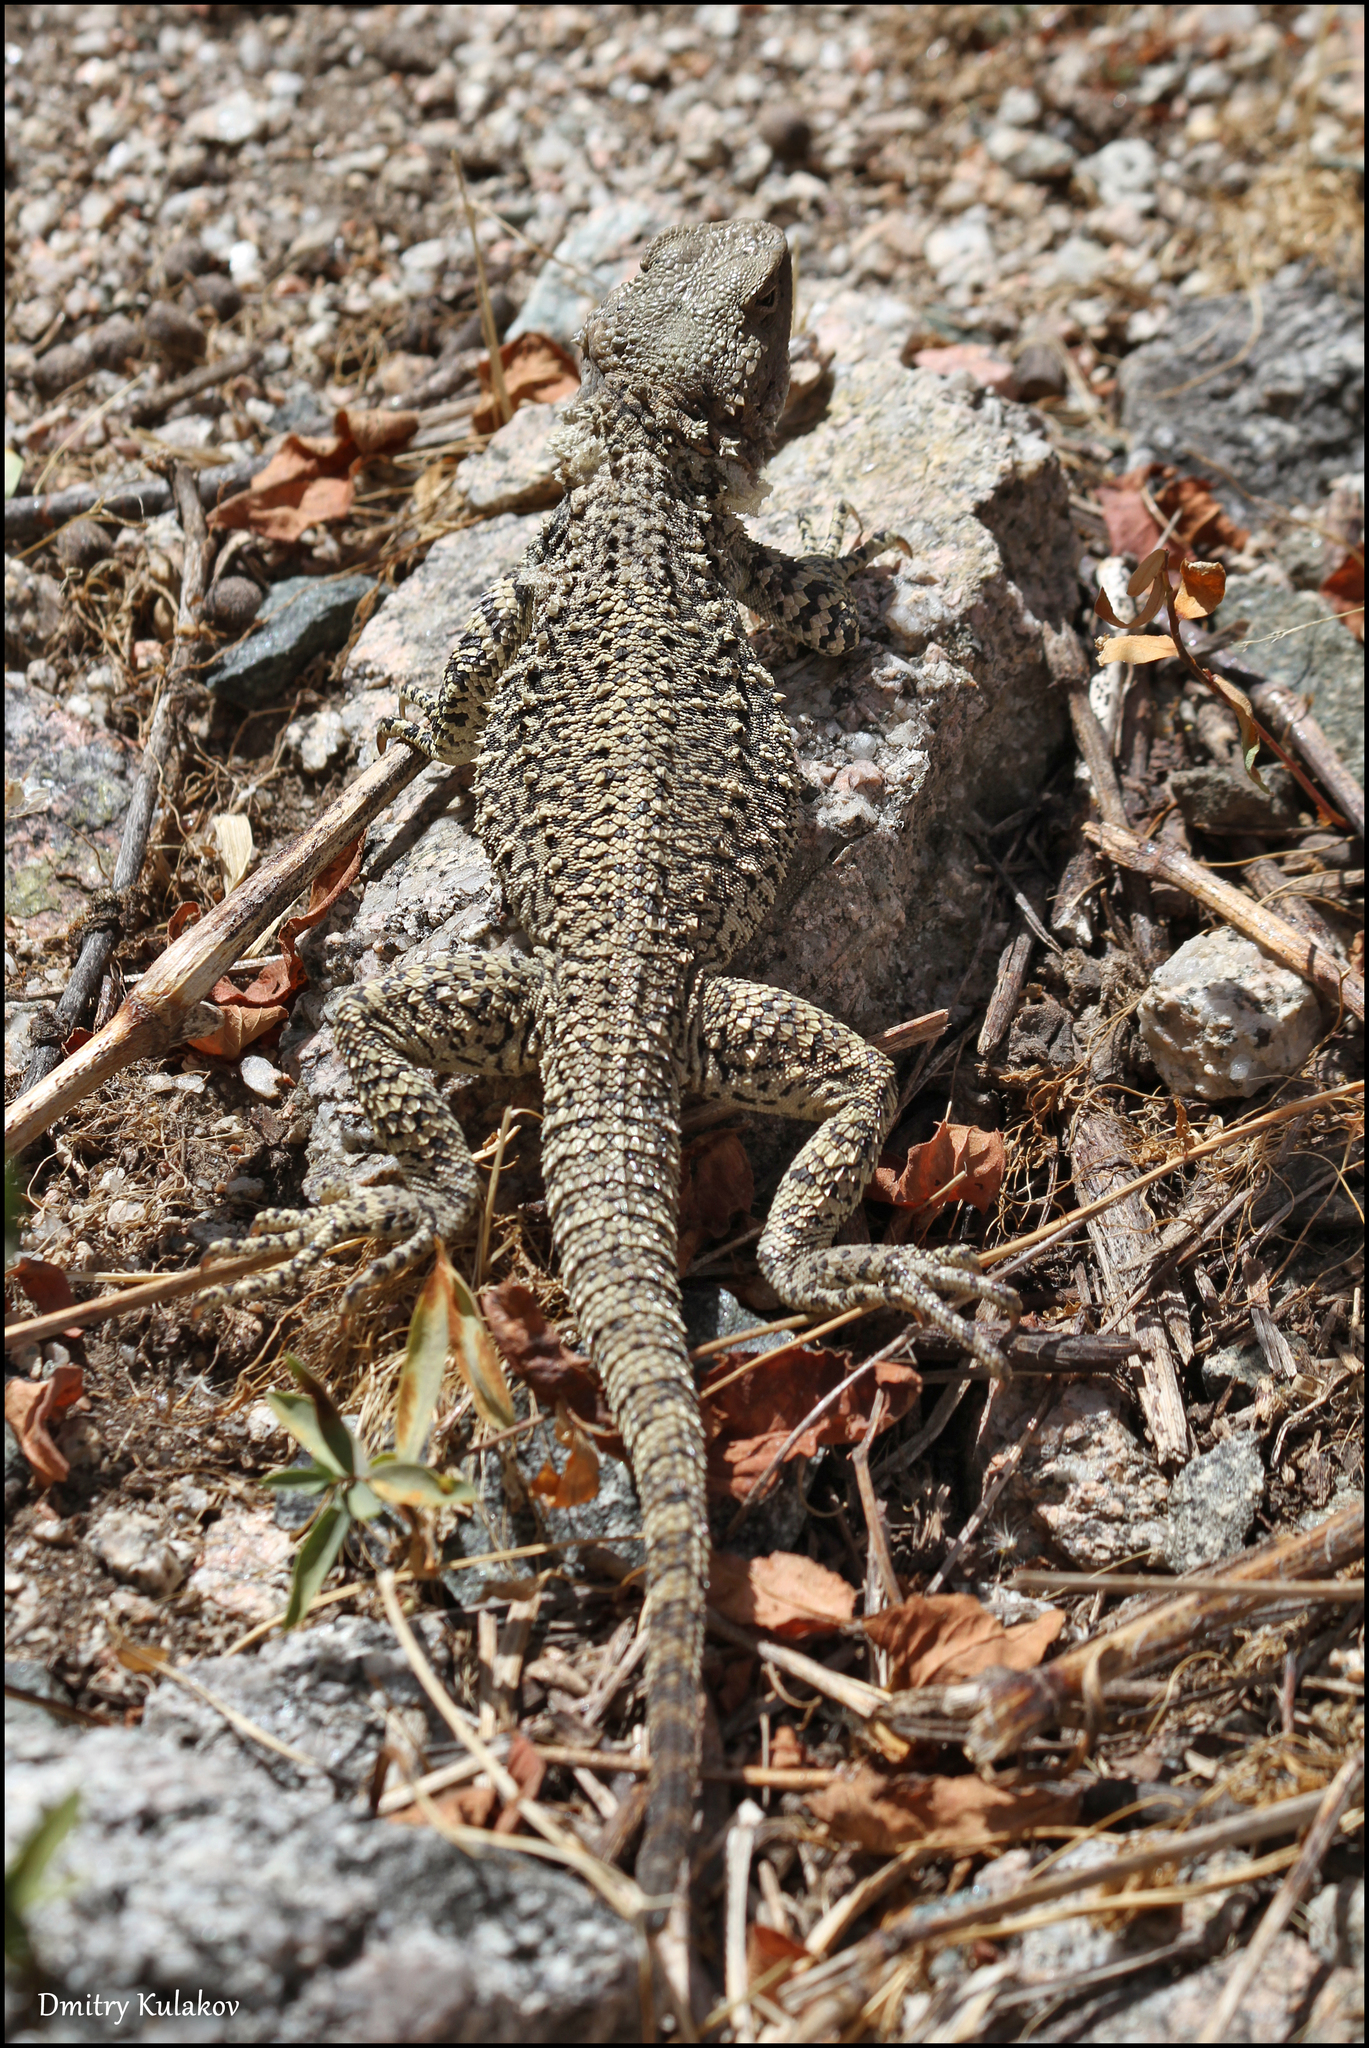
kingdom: Animalia
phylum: Chordata
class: Squamata
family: Agamidae
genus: Paralaudakia
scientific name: Paralaudakia lehmanni
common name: Turkestan rock agama
